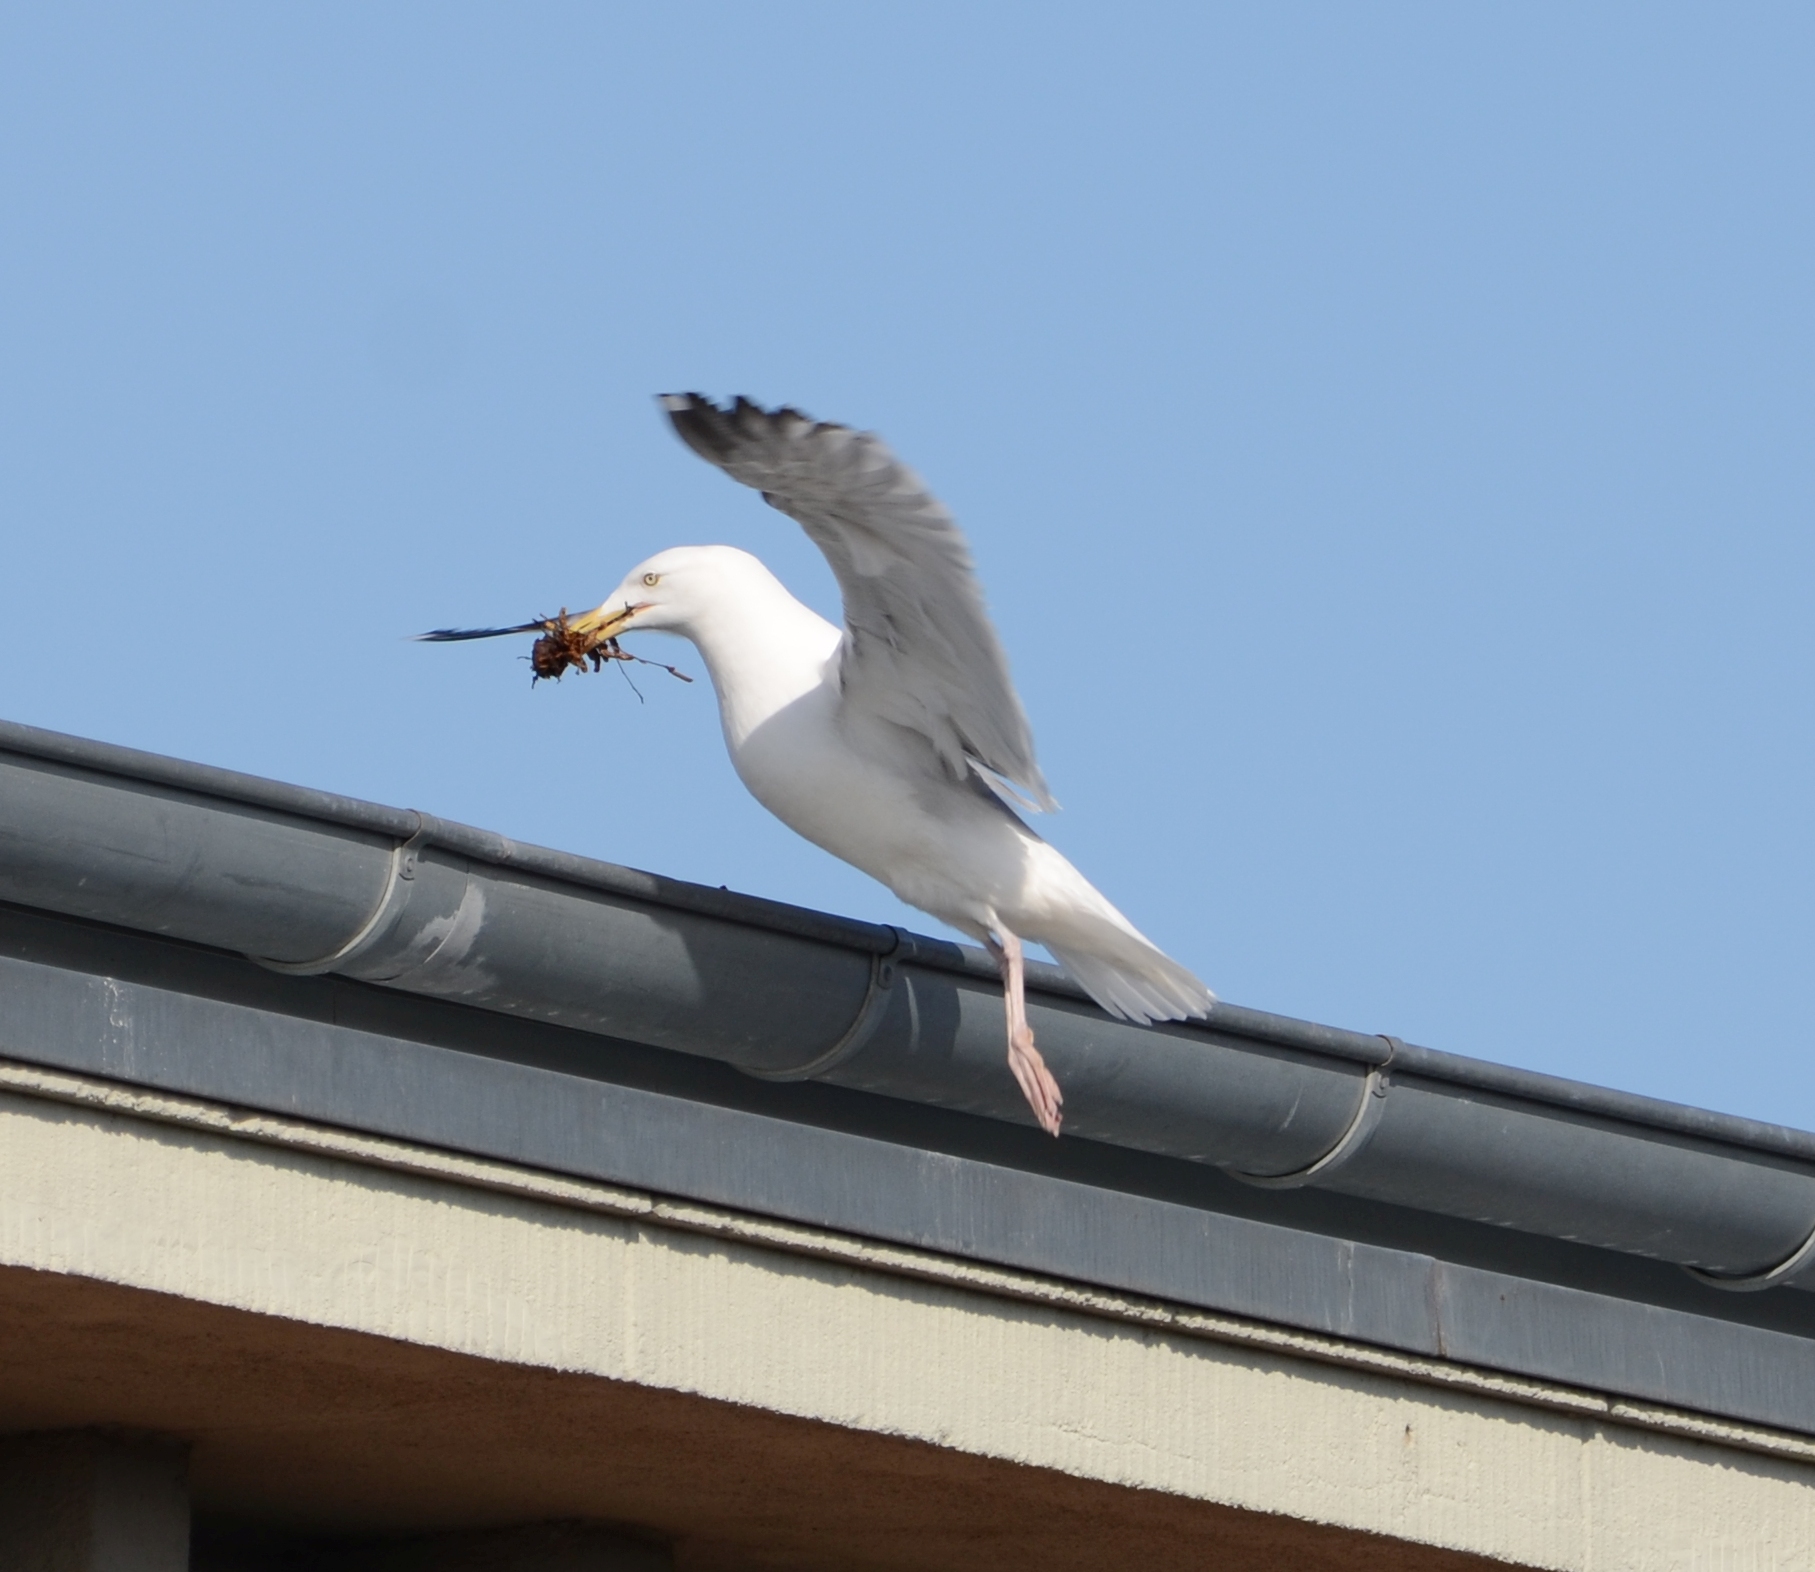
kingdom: Animalia
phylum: Chordata
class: Aves
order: Charadriiformes
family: Laridae
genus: Larus
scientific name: Larus argentatus
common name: Herring gull
